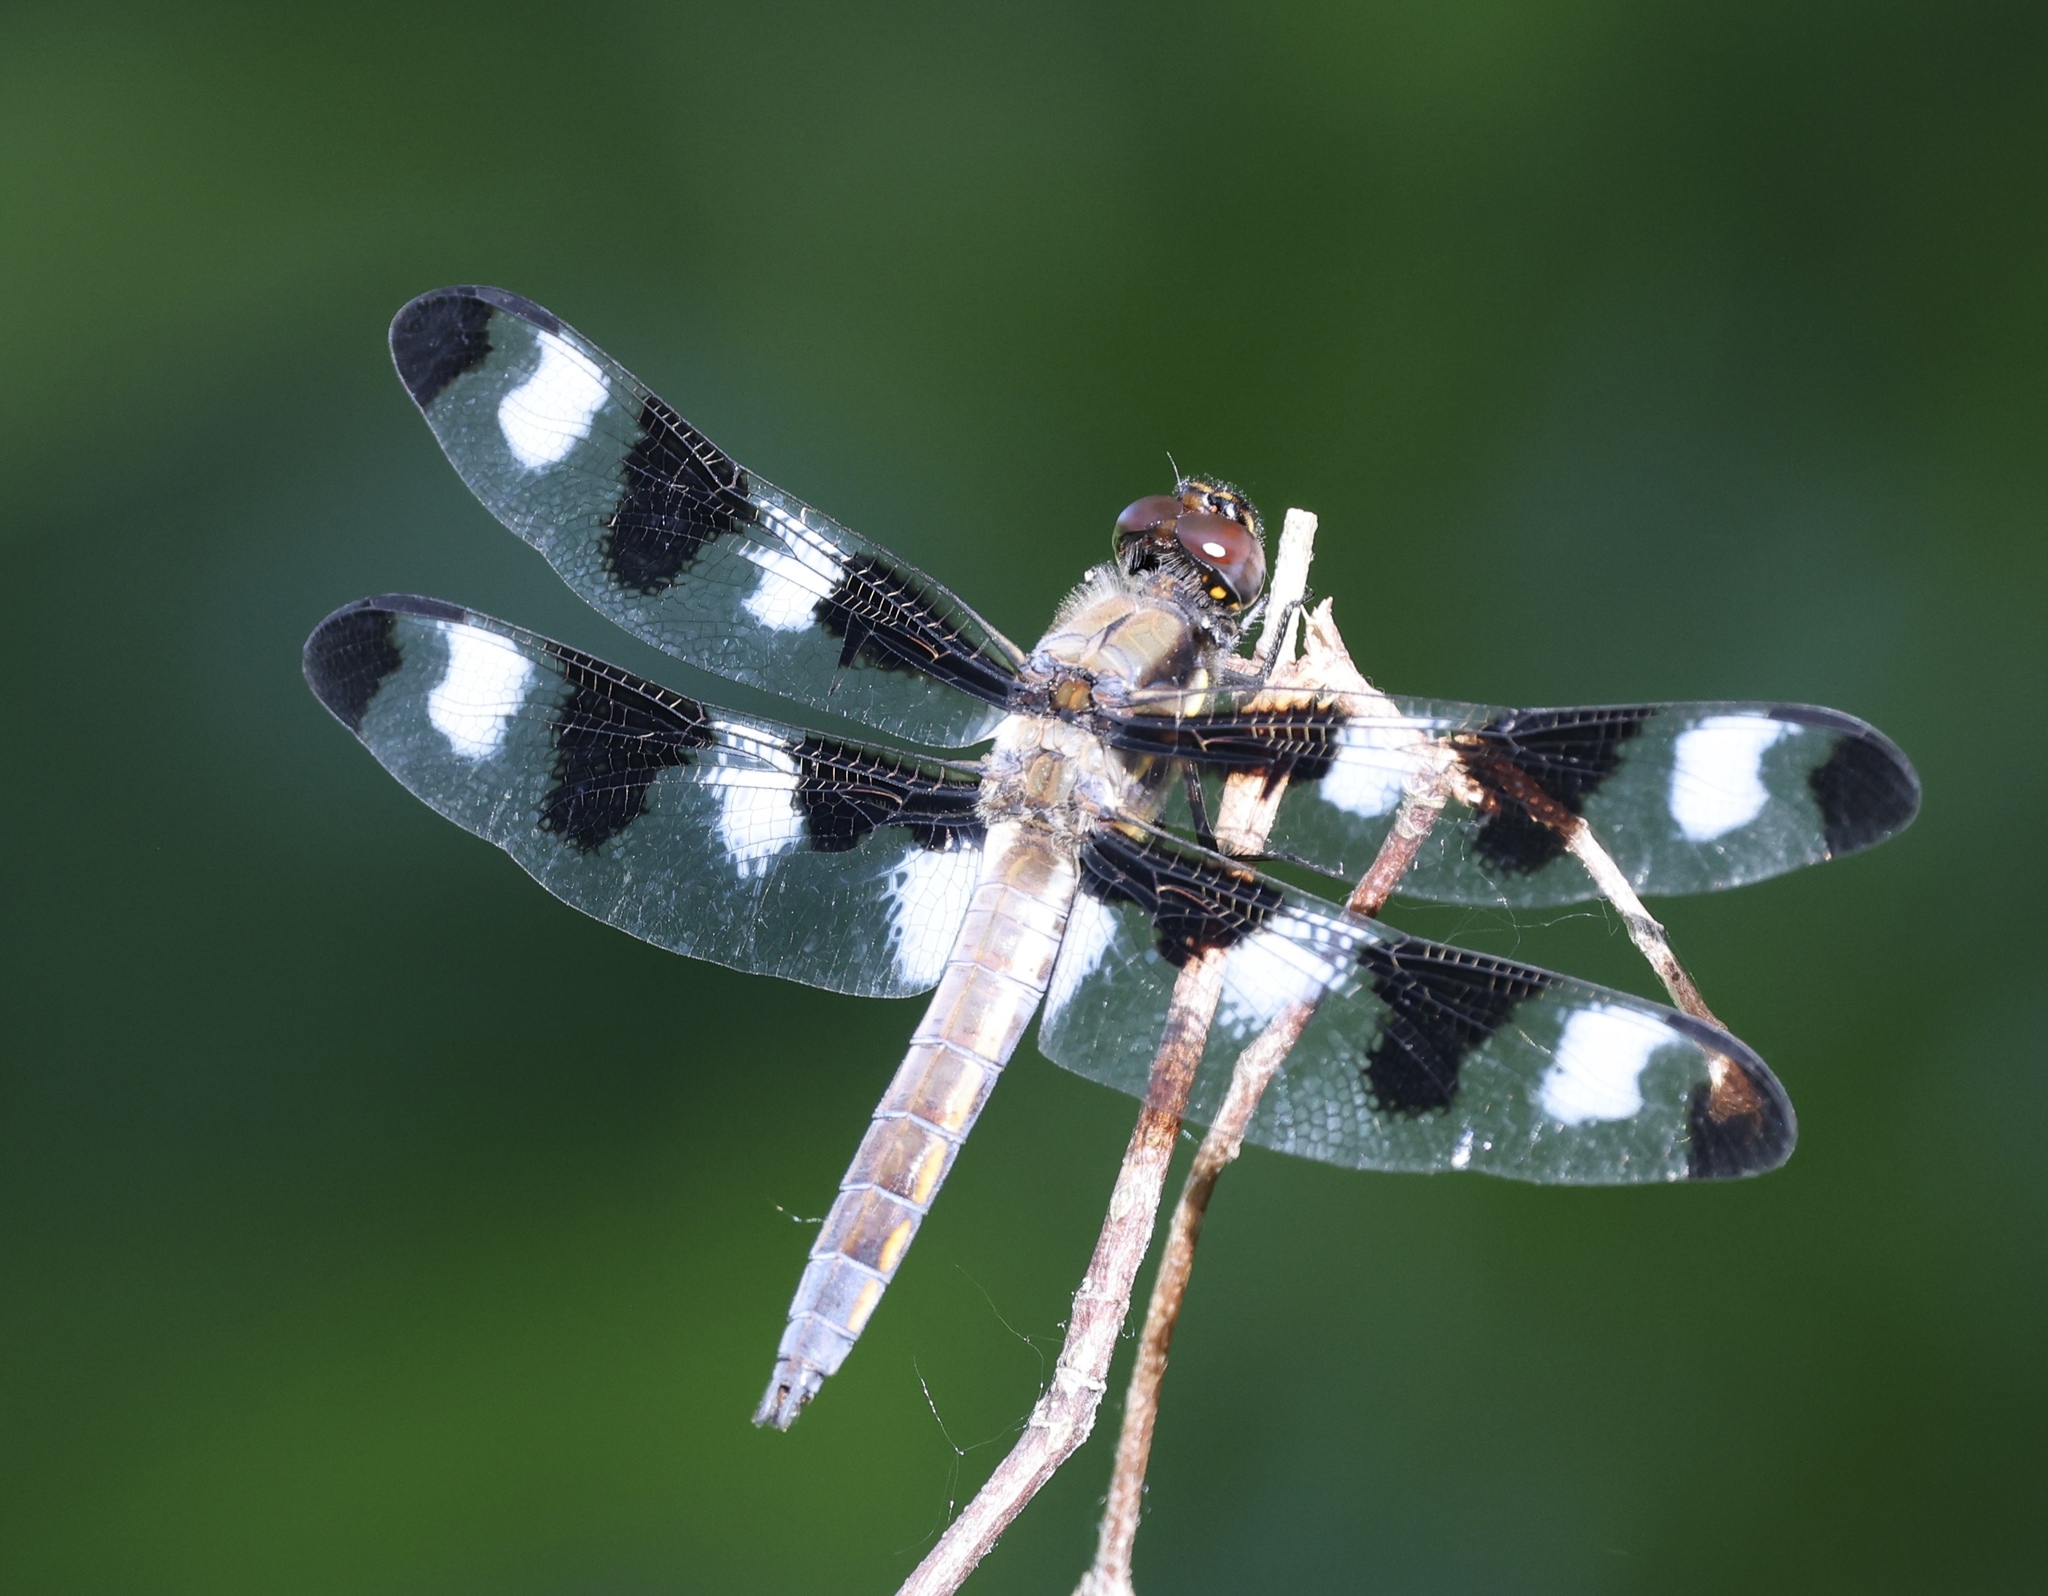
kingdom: Animalia
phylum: Arthropoda
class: Insecta
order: Odonata
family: Libellulidae
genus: Libellula
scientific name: Libellula pulchella
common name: Twelve-spotted skimmer
